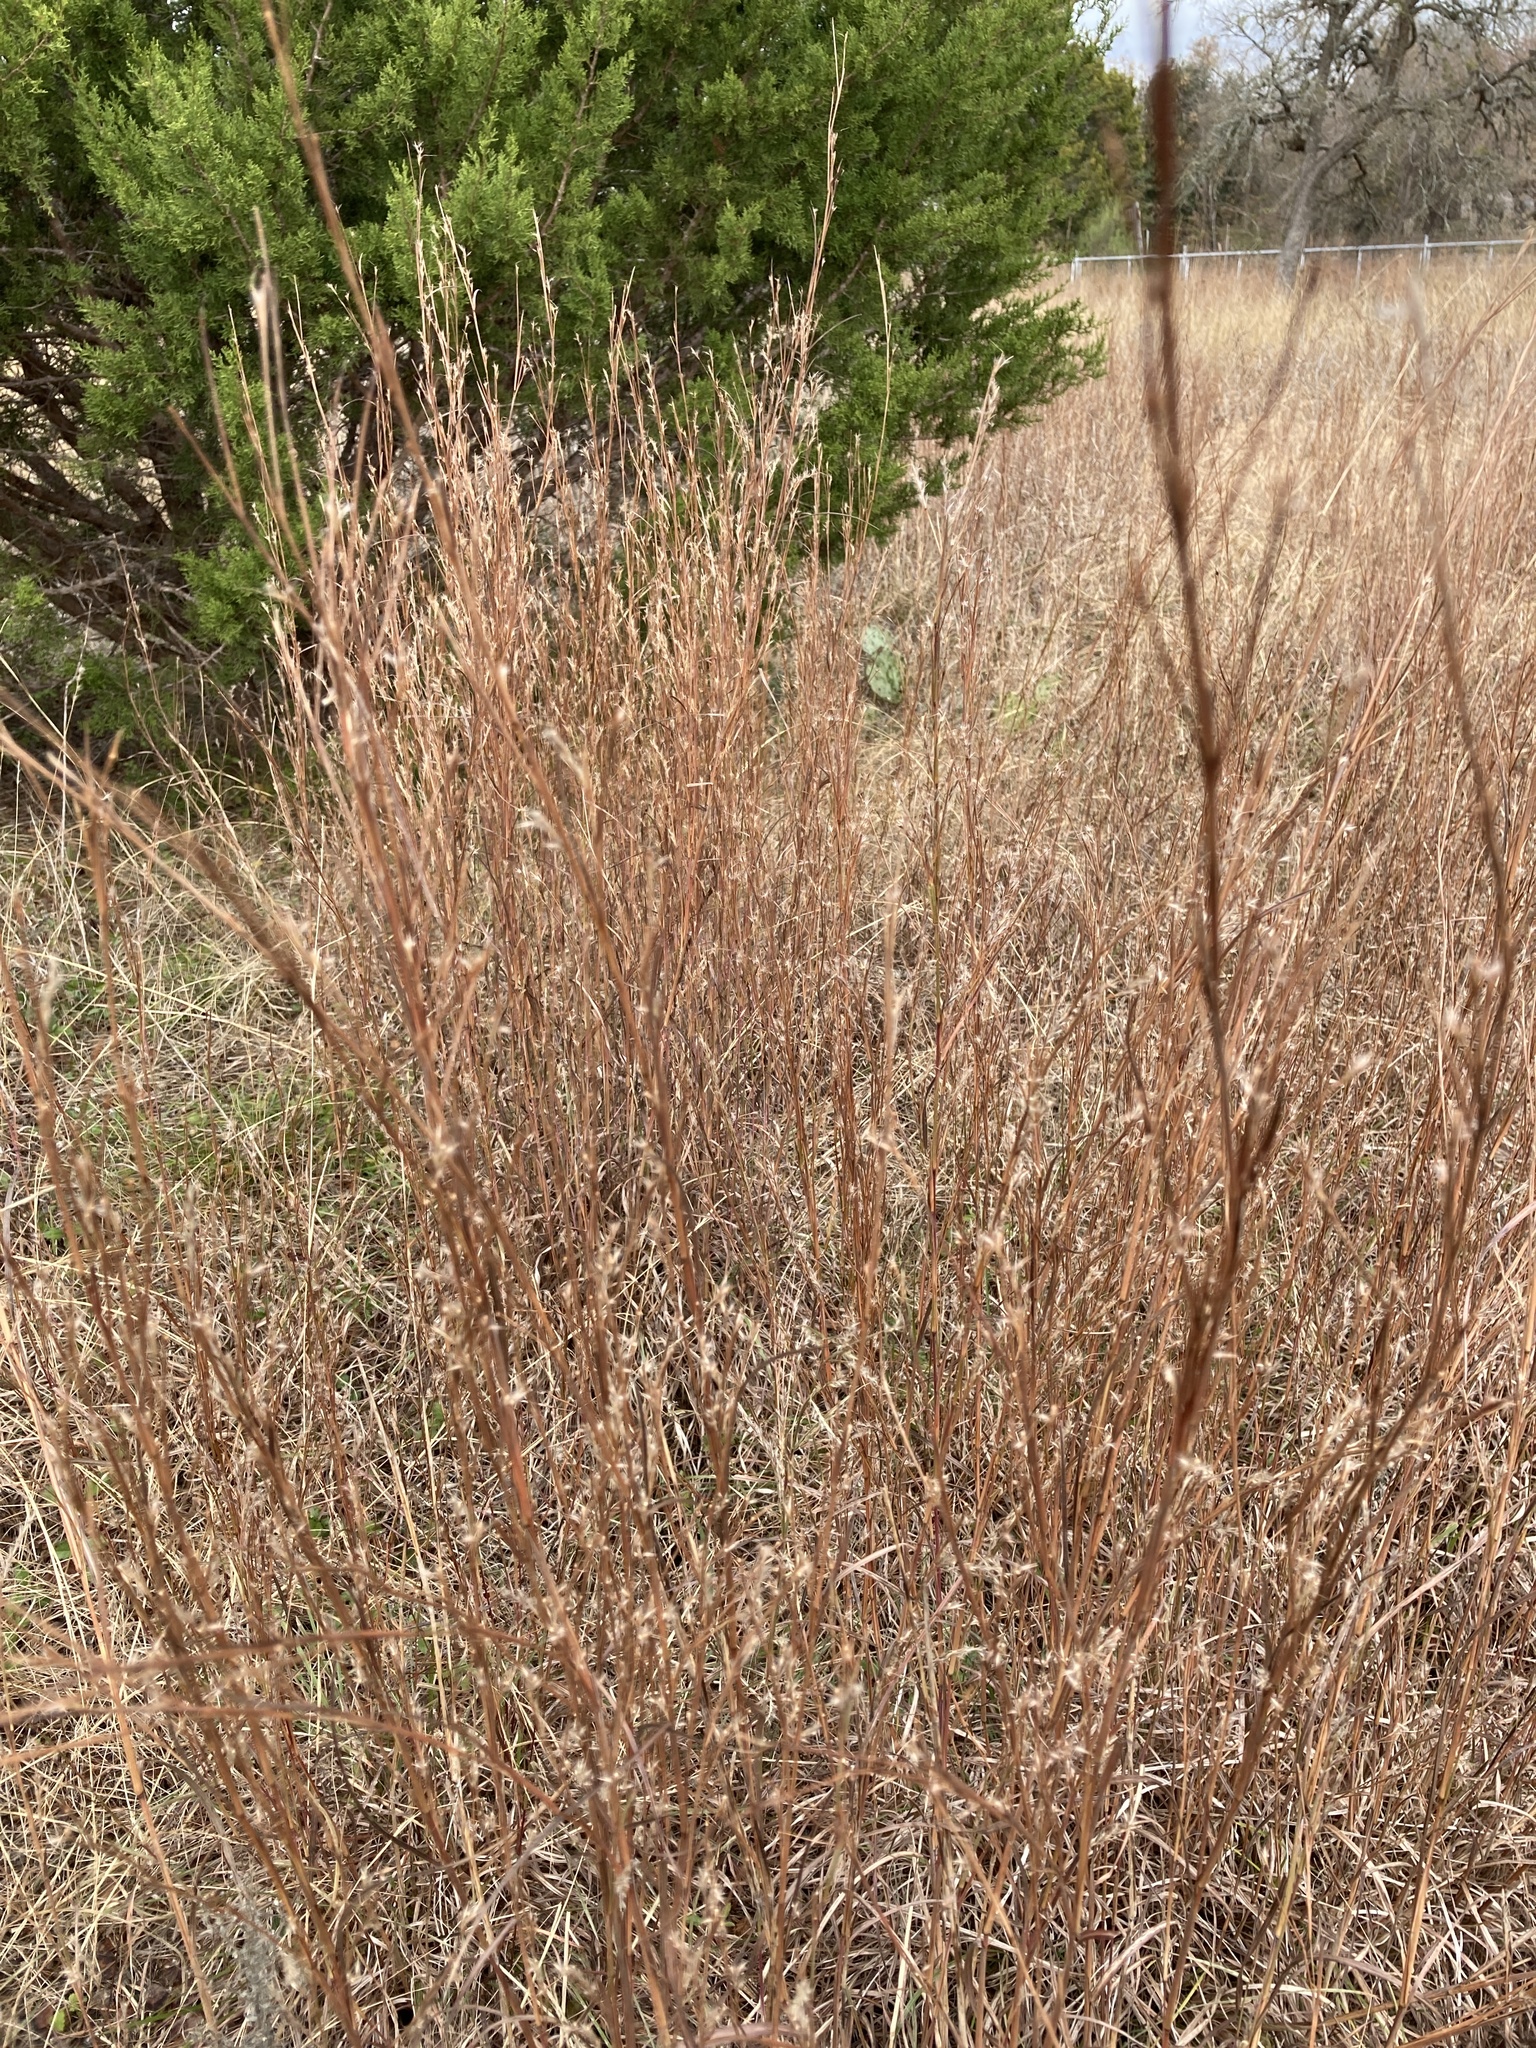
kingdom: Plantae
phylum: Tracheophyta
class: Liliopsida
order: Poales
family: Poaceae
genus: Schizachyrium
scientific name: Schizachyrium scoparium
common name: Little bluestem
